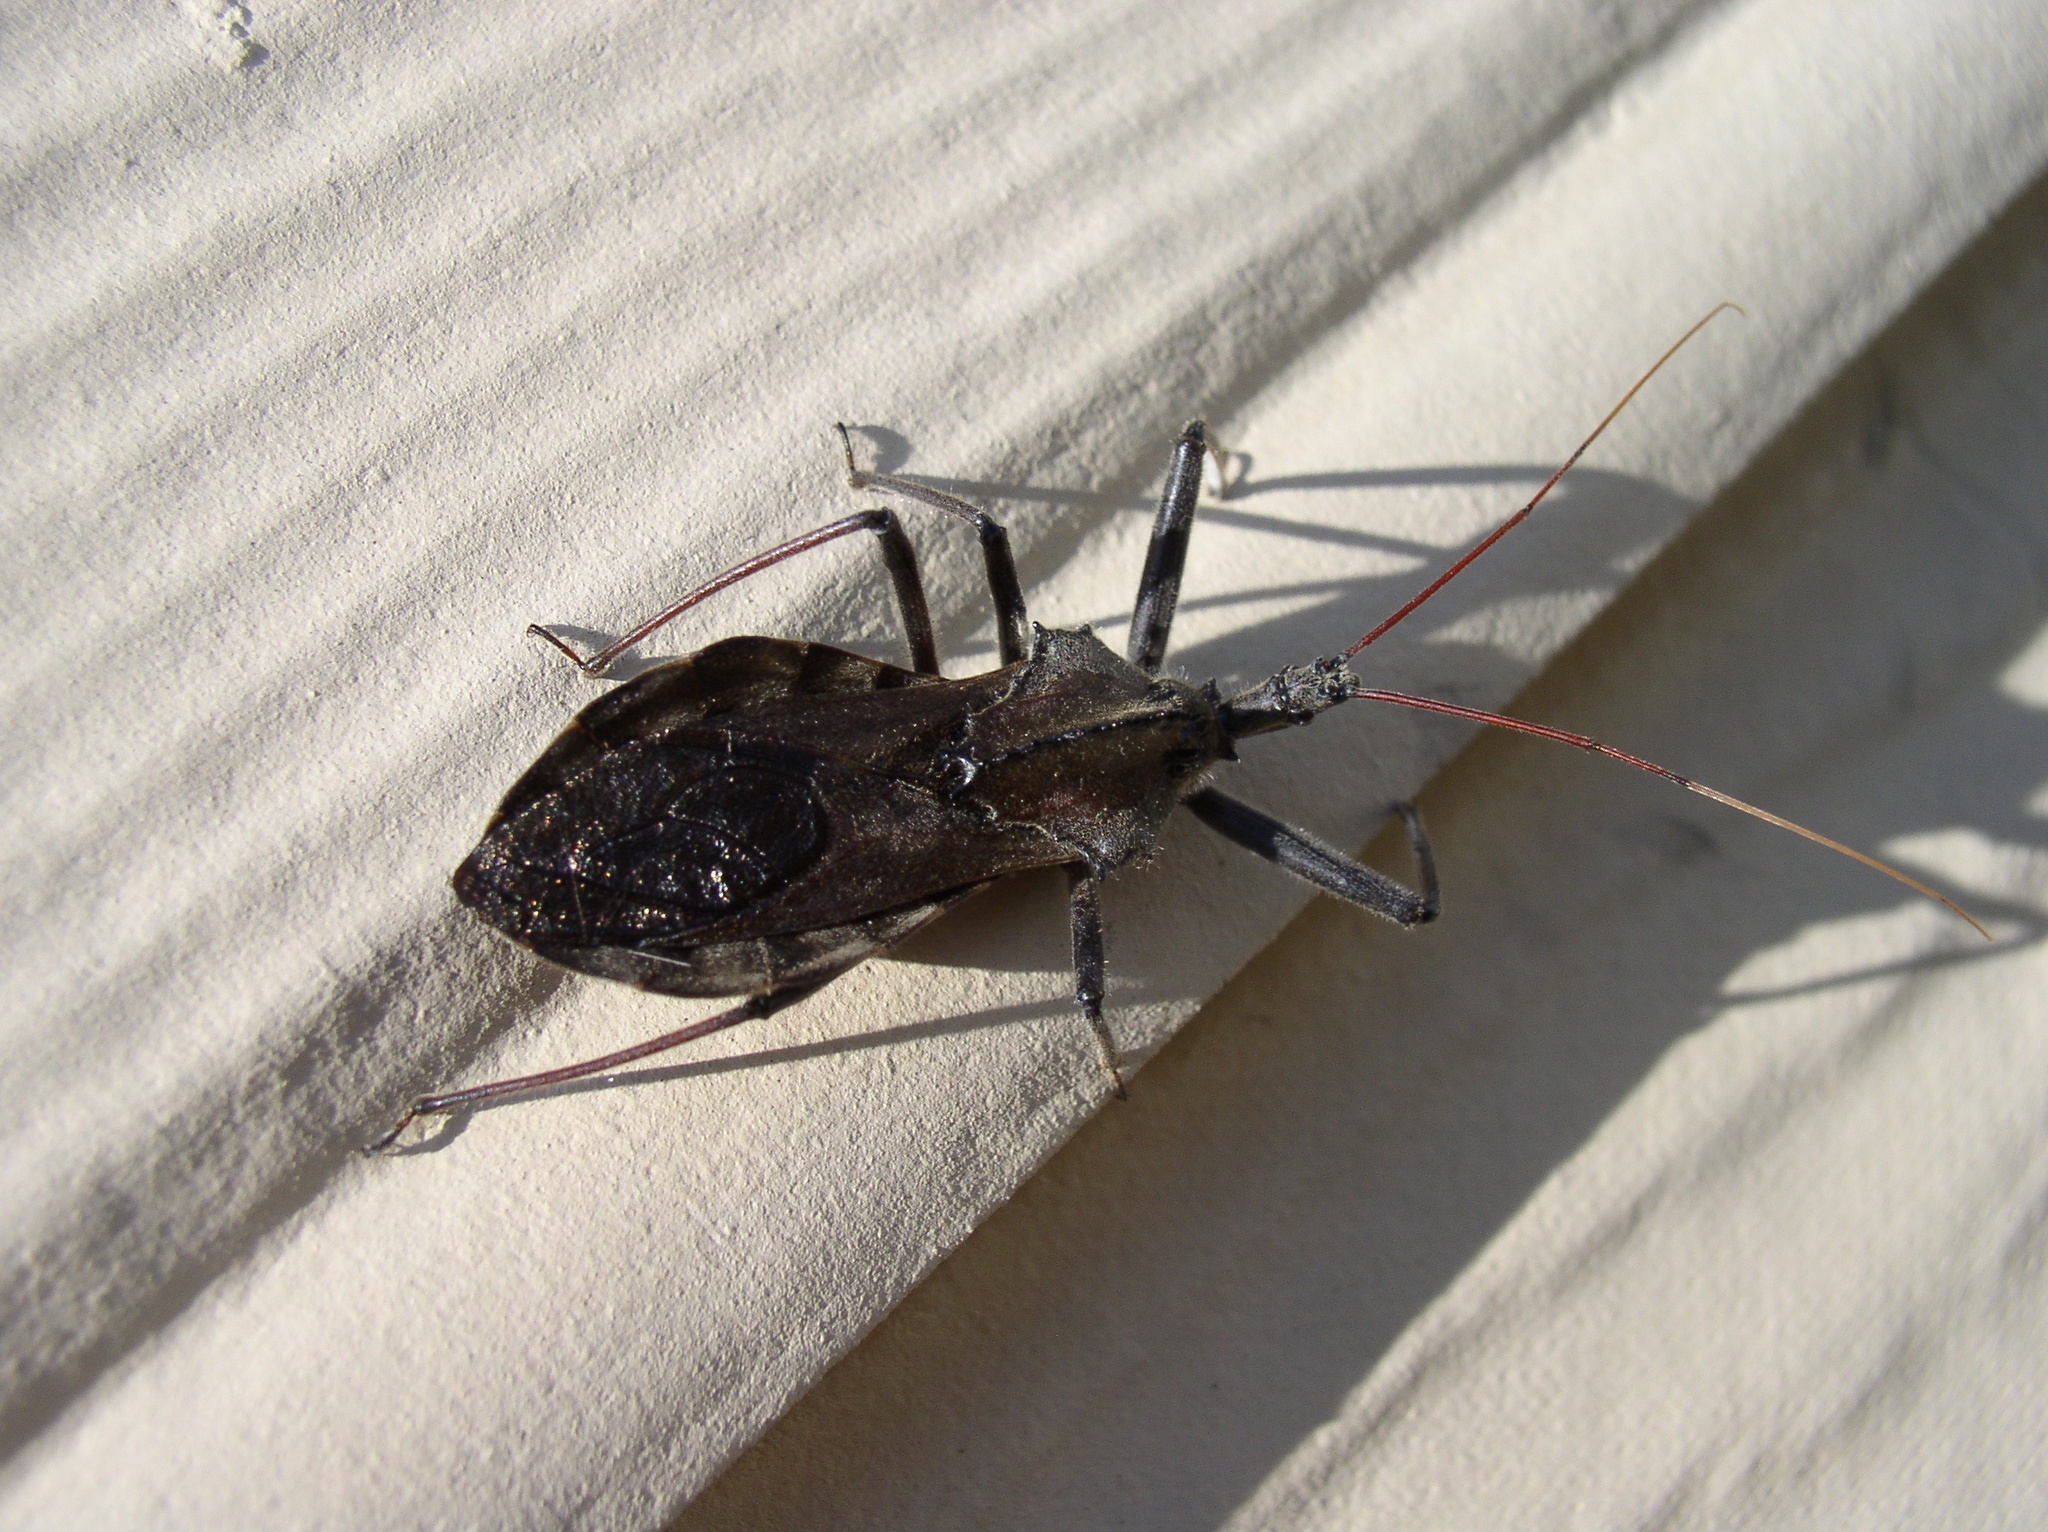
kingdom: Animalia
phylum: Arthropoda
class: Insecta
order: Hemiptera
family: Reduviidae
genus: Arilus
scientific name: Arilus cristatus
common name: North american wheel bug
